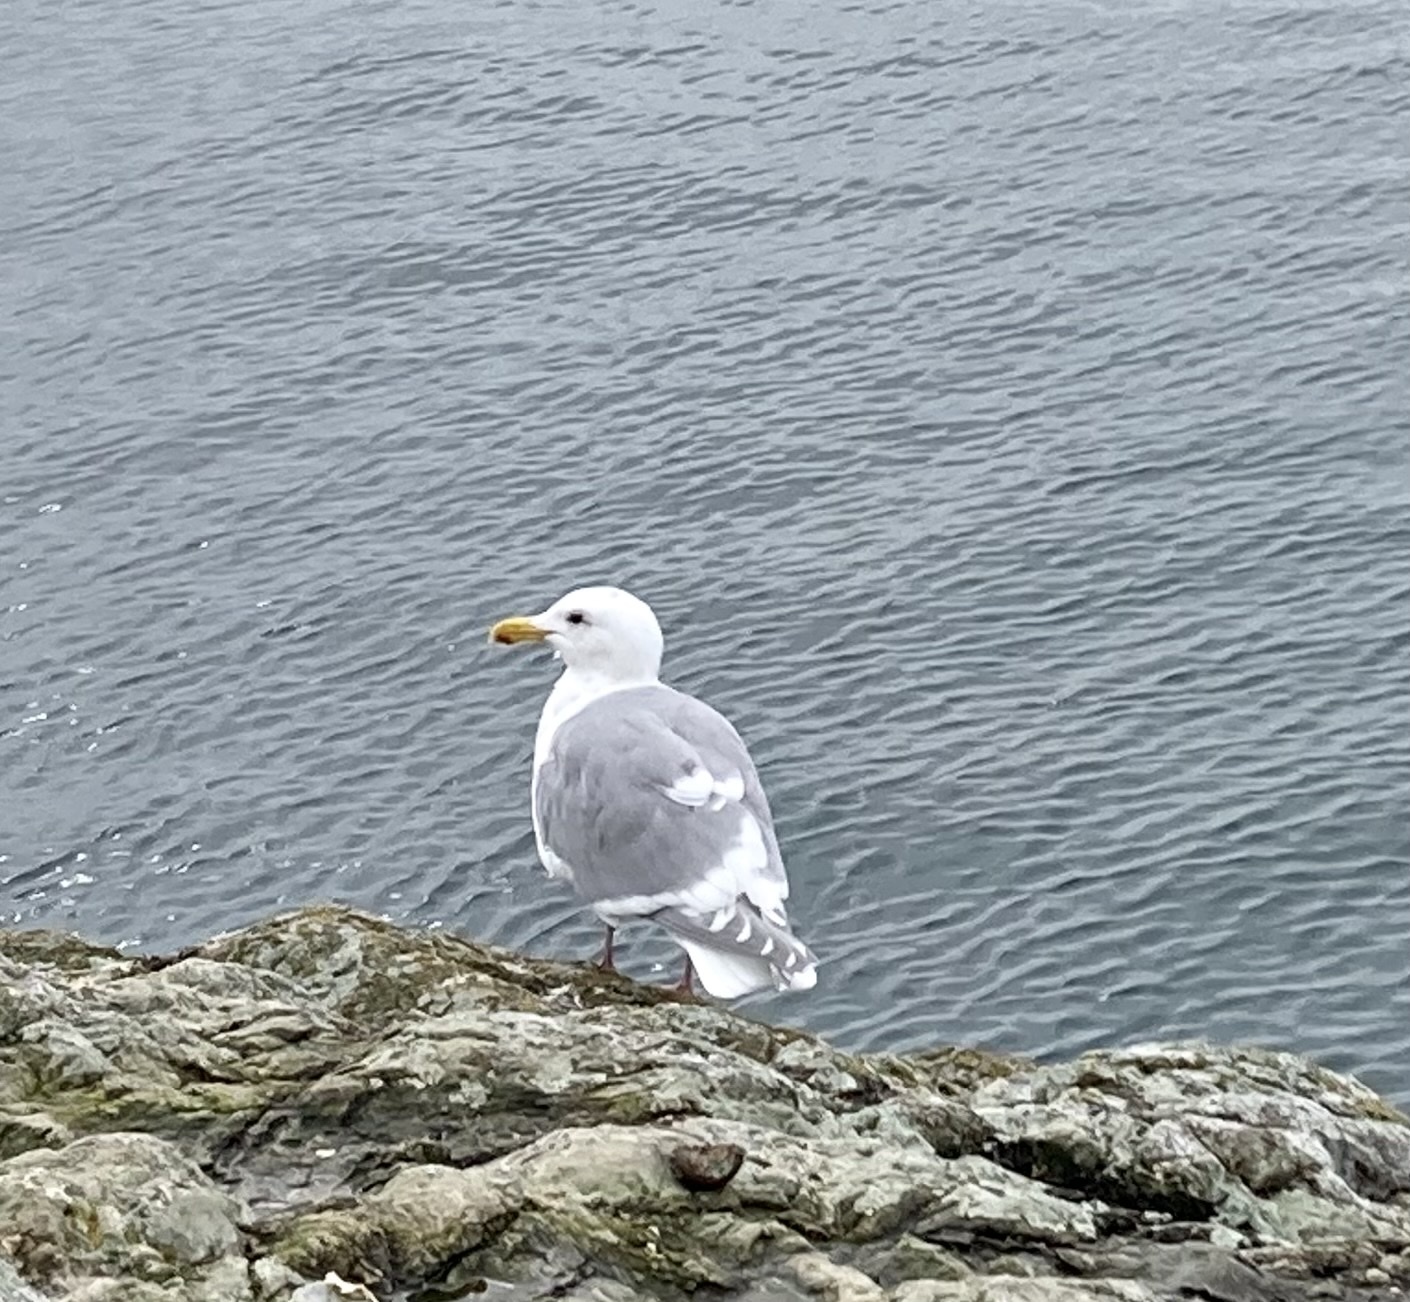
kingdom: Animalia
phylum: Chordata
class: Aves
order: Charadriiformes
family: Laridae
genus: Larus
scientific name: Larus glaucescens
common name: Glaucous-winged gull
